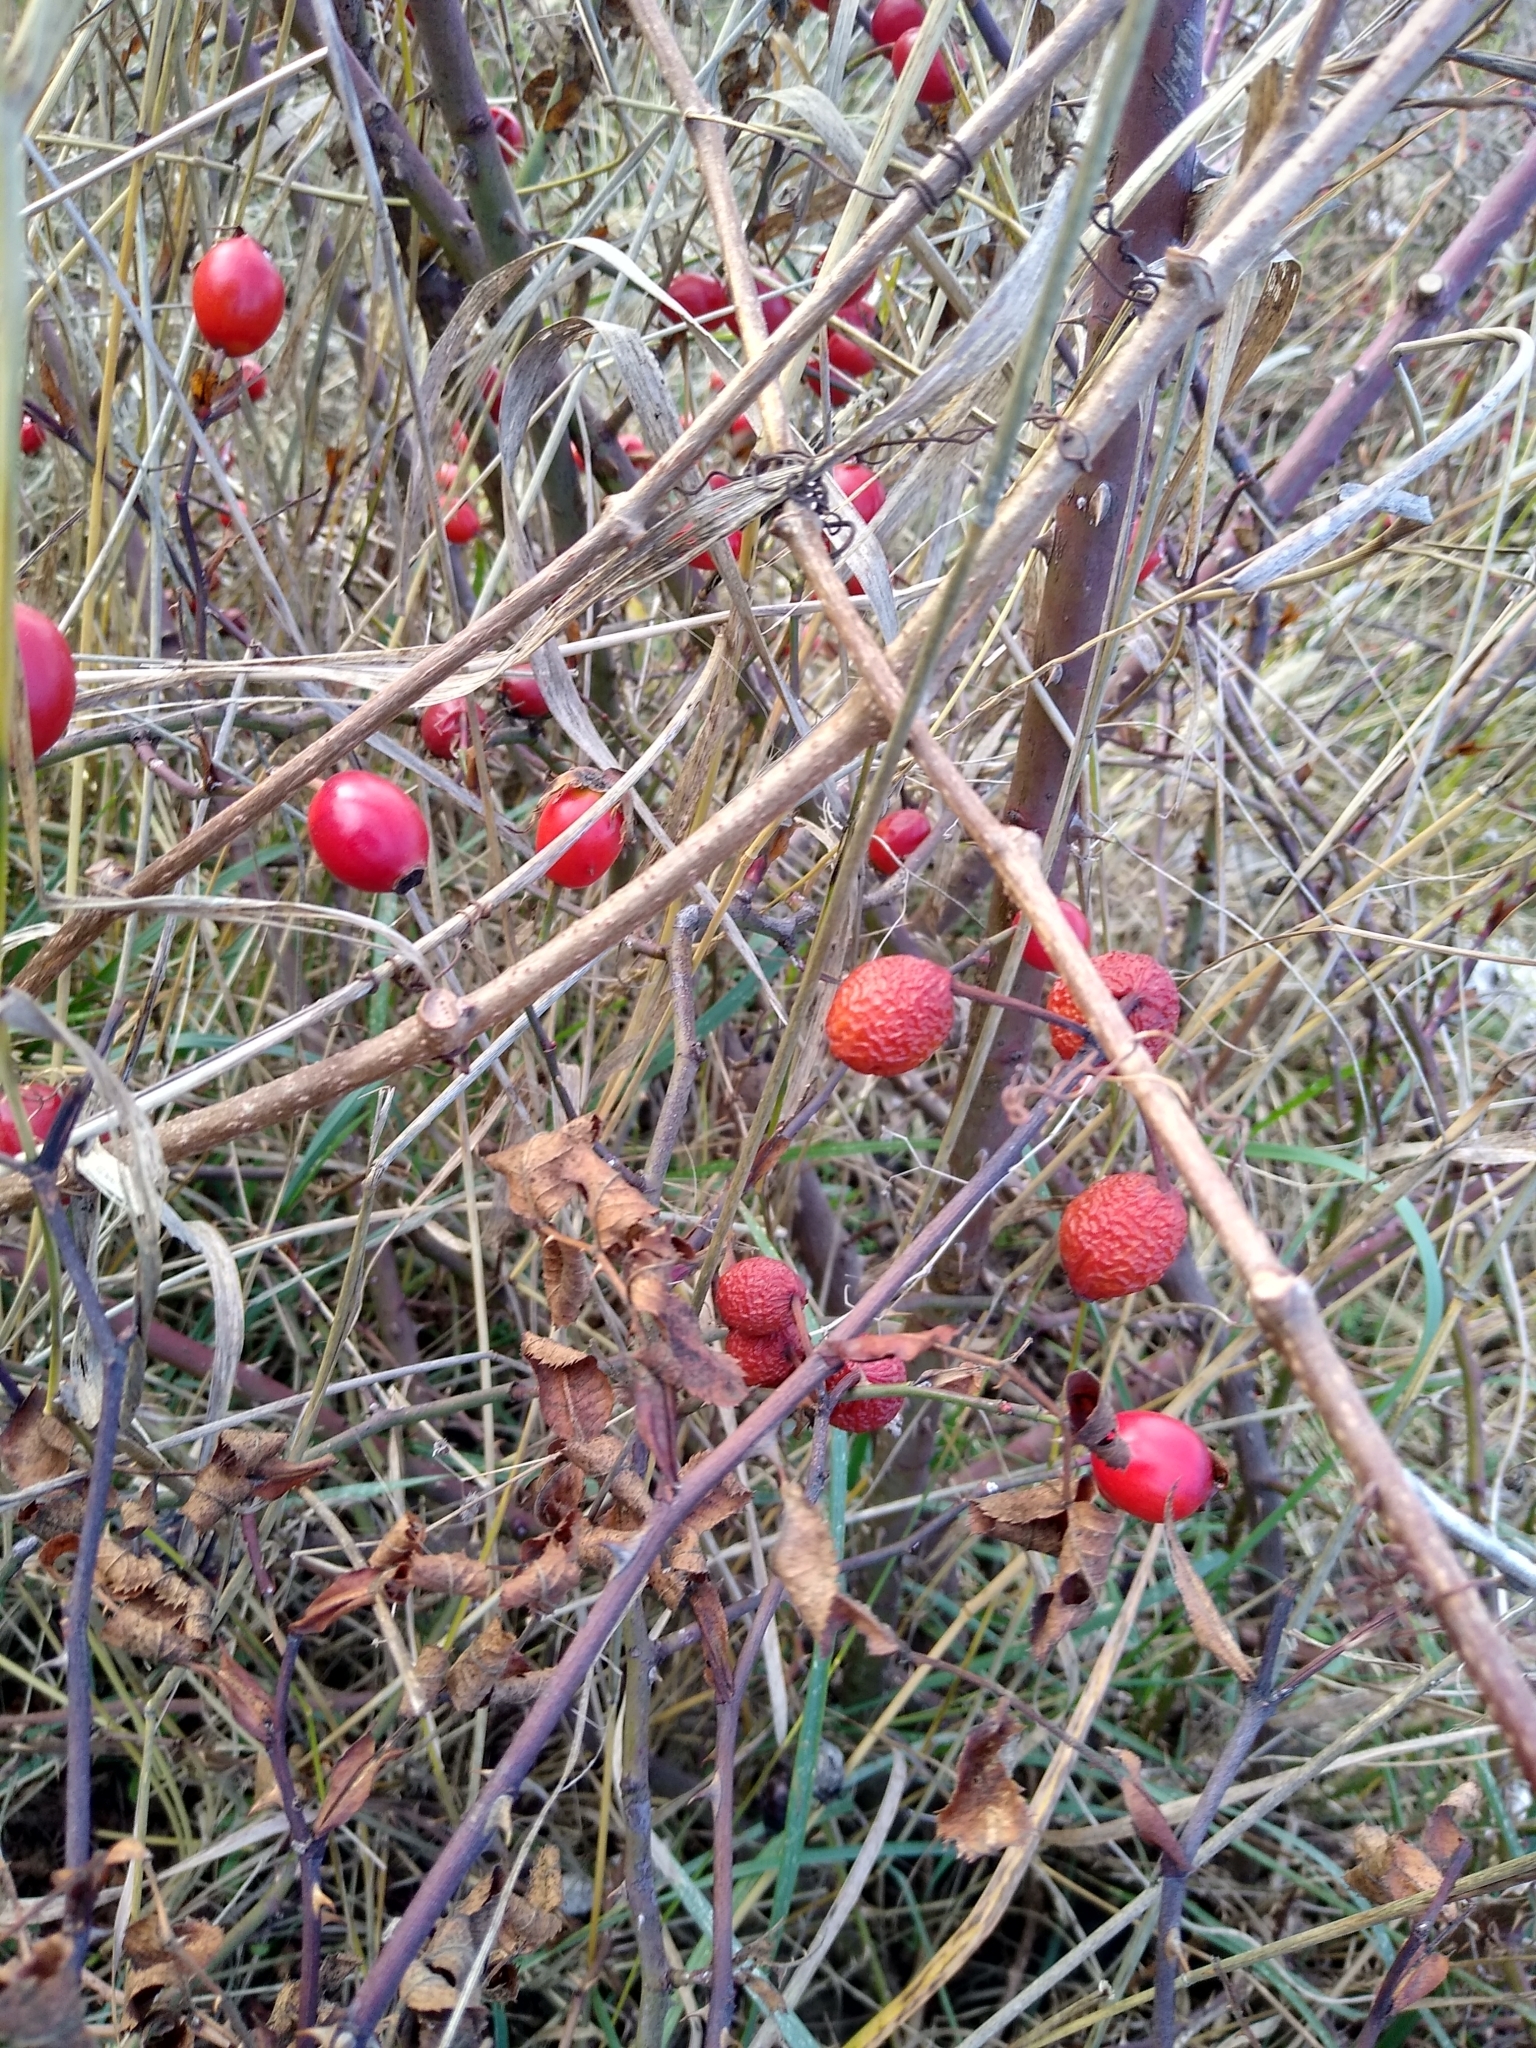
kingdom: Plantae
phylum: Tracheophyta
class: Magnoliopsida
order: Rosales
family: Rosaceae
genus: Rosa
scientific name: Rosa canina
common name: Dog rose
